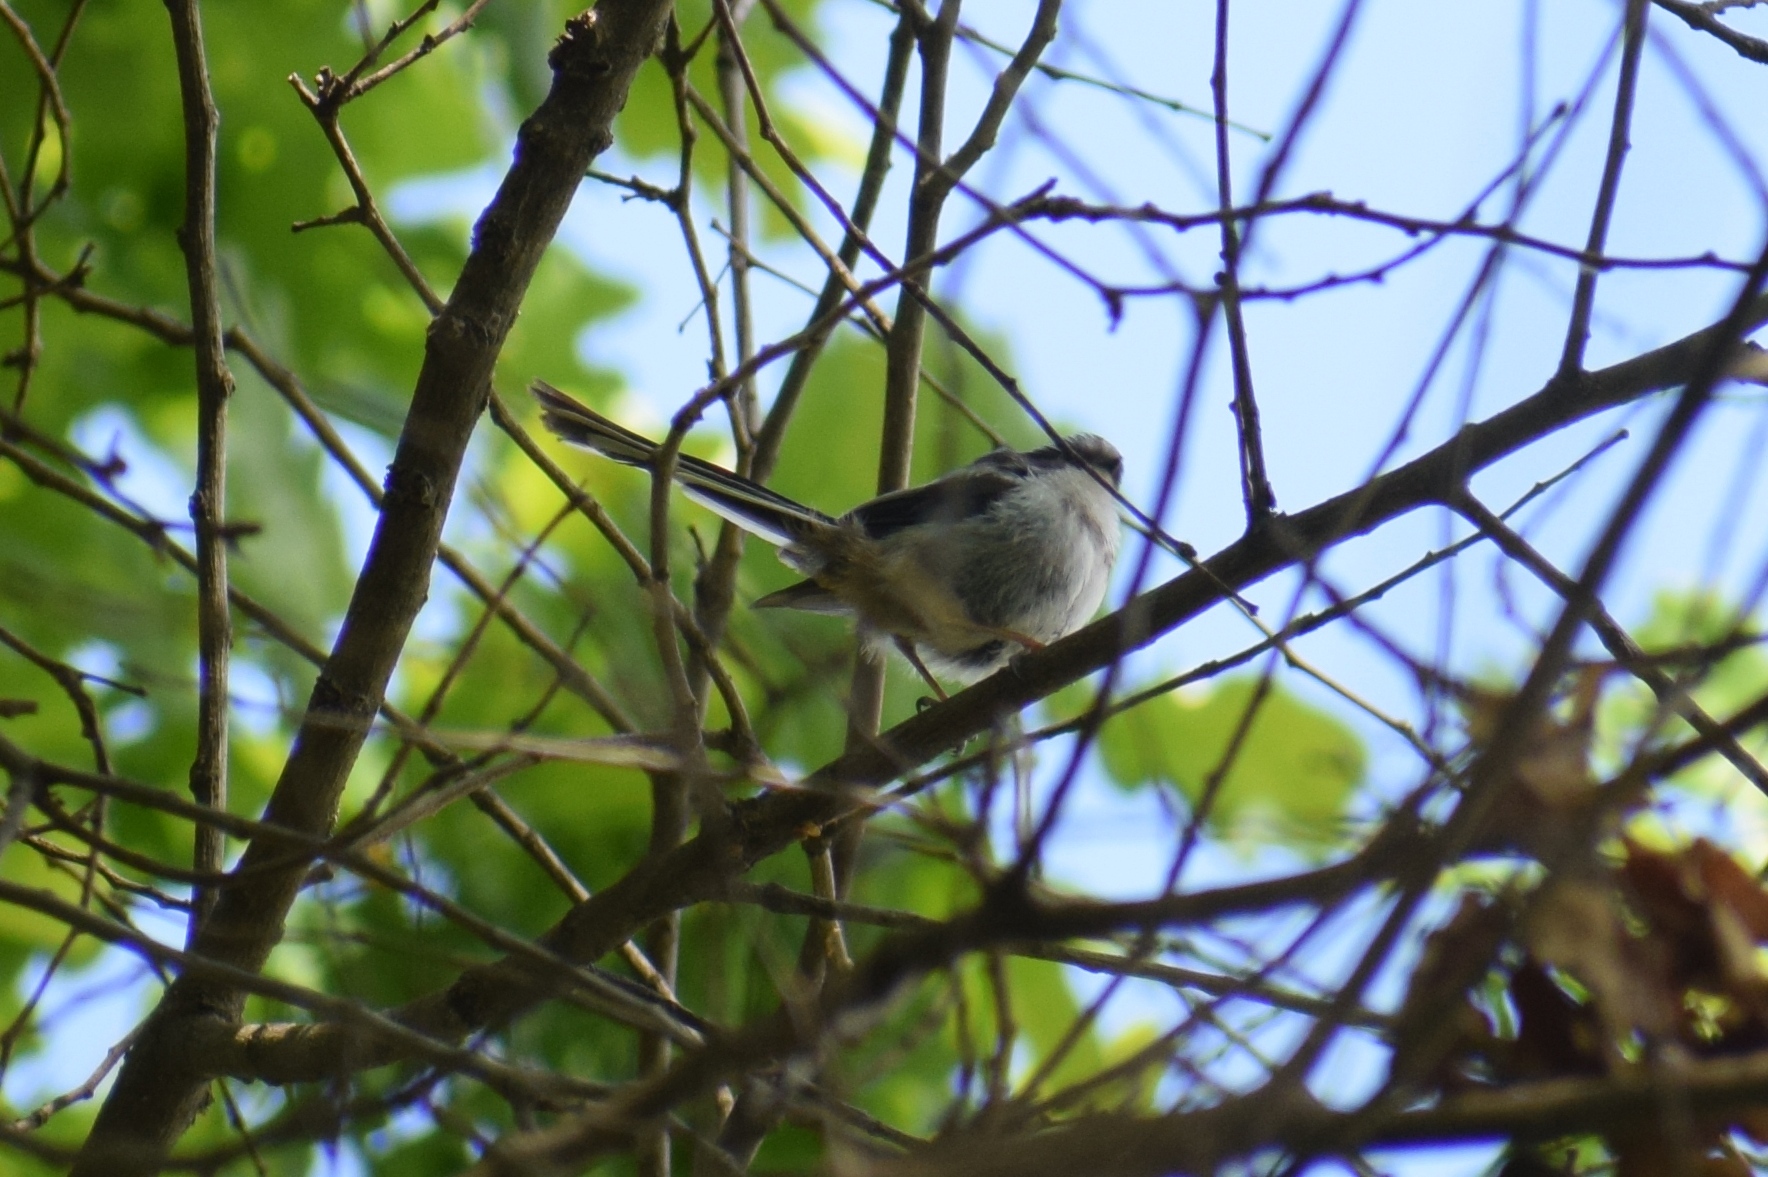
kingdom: Animalia
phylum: Chordata
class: Aves
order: Passeriformes
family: Aegithalidae
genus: Aegithalos
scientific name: Aegithalos caudatus
